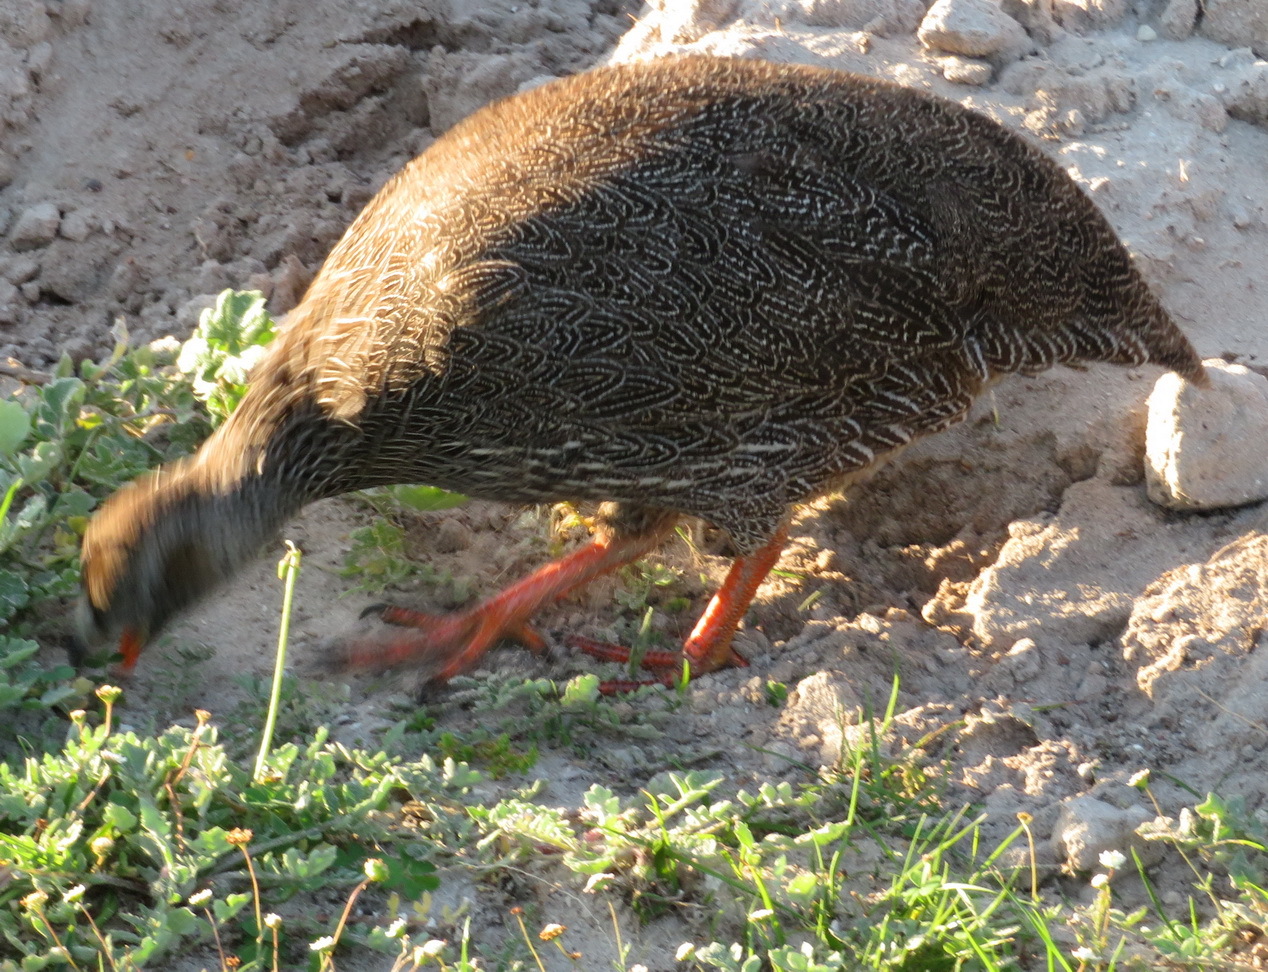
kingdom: Animalia
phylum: Chordata
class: Aves
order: Galliformes
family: Phasianidae
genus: Pternistis
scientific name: Pternistis capensis
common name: Cape spurfowl
